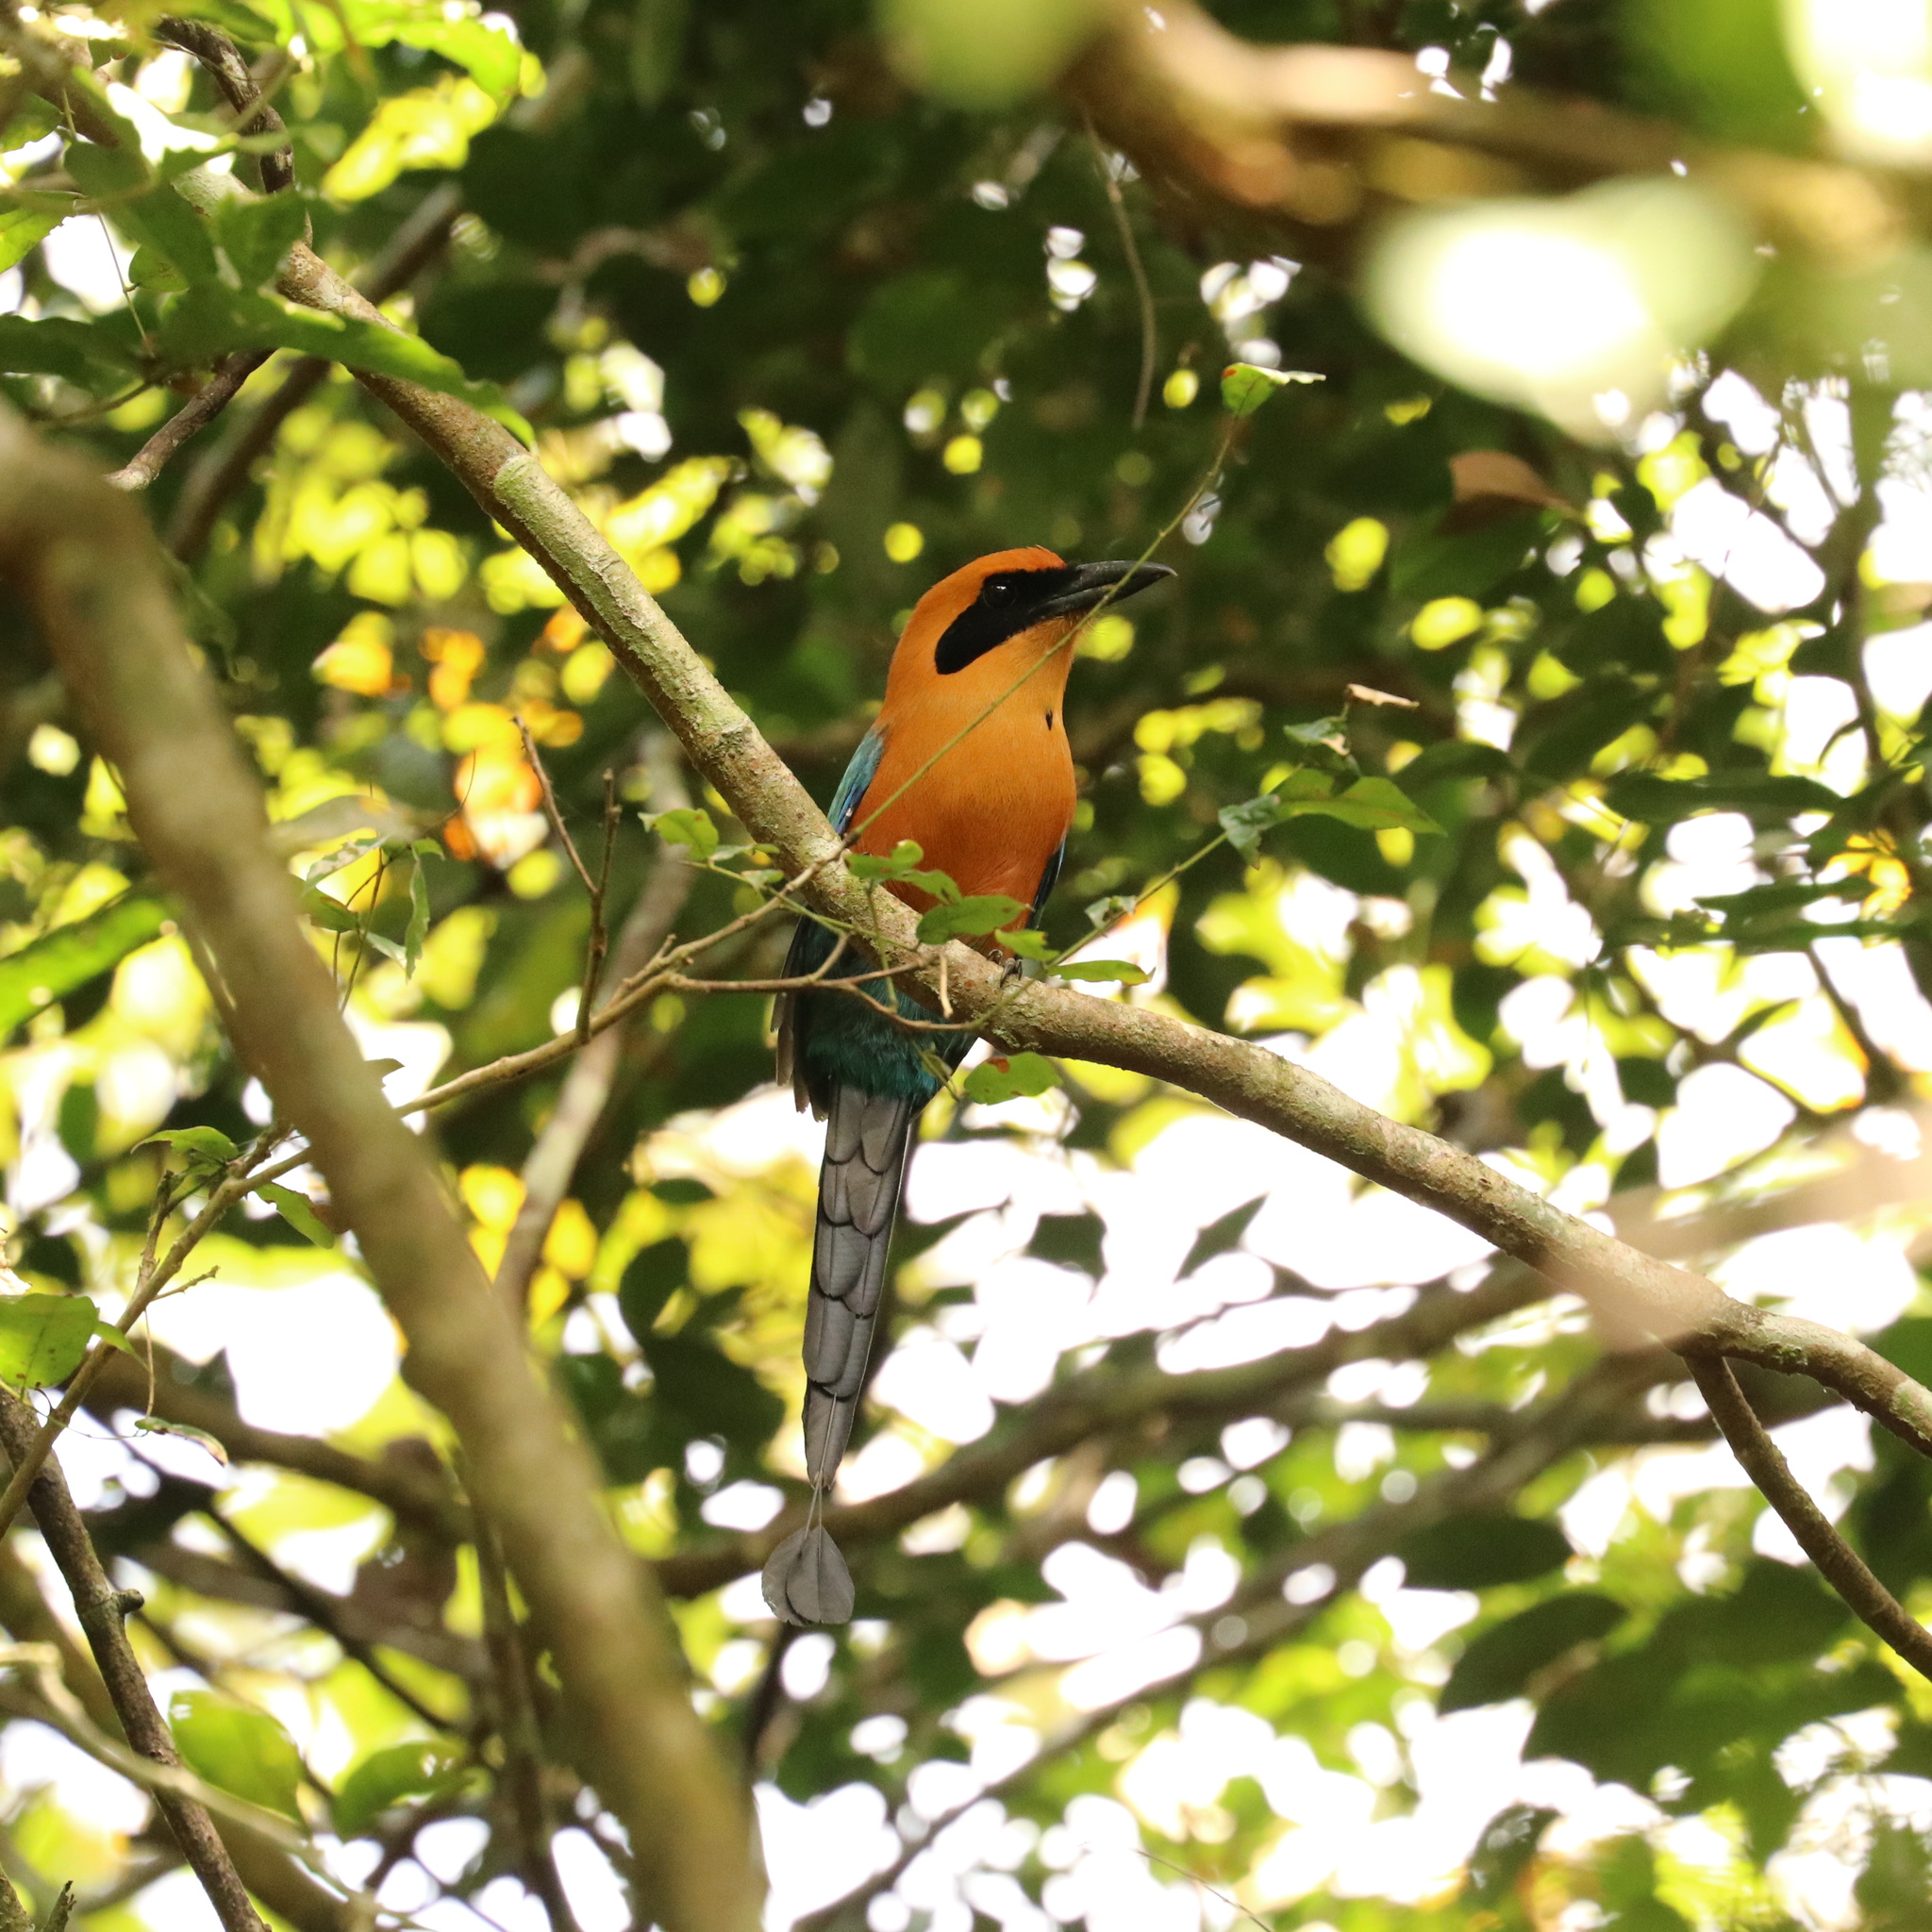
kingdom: Animalia
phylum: Chordata
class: Aves
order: Coraciiformes
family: Momotidae
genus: Baryphthengus
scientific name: Baryphthengus martii
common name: Rufous motmot
